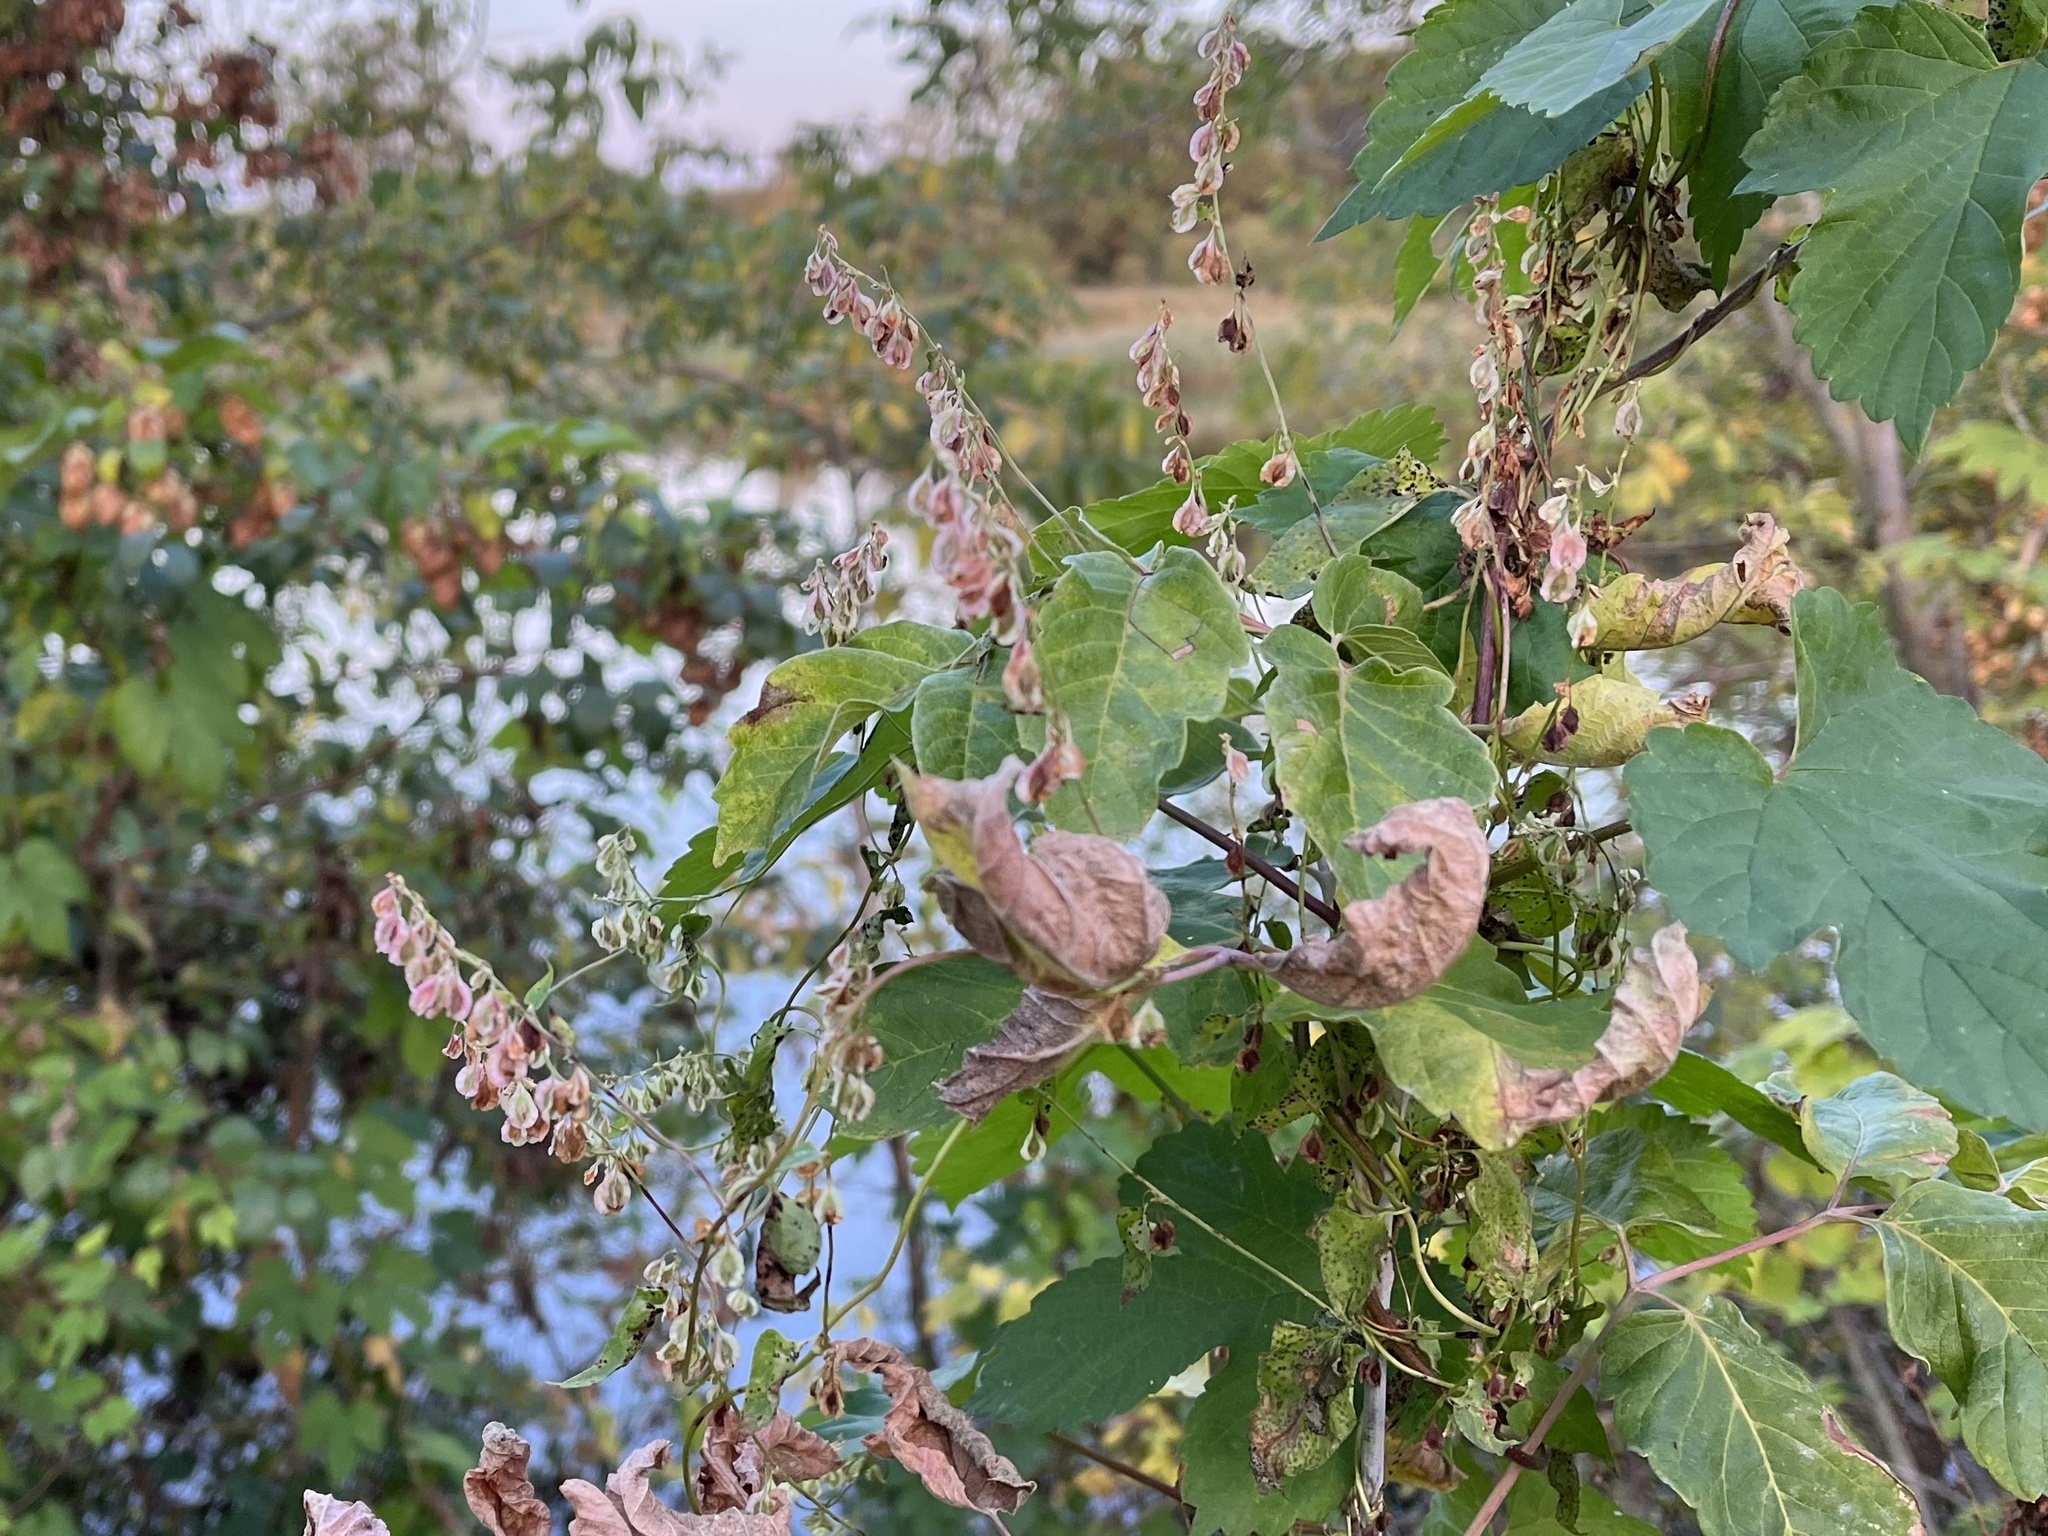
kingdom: Plantae
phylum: Tracheophyta
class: Magnoliopsida
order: Caryophyllales
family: Polygonaceae
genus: Fallopia
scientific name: Fallopia dumetorum
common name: Copse-bindweed
